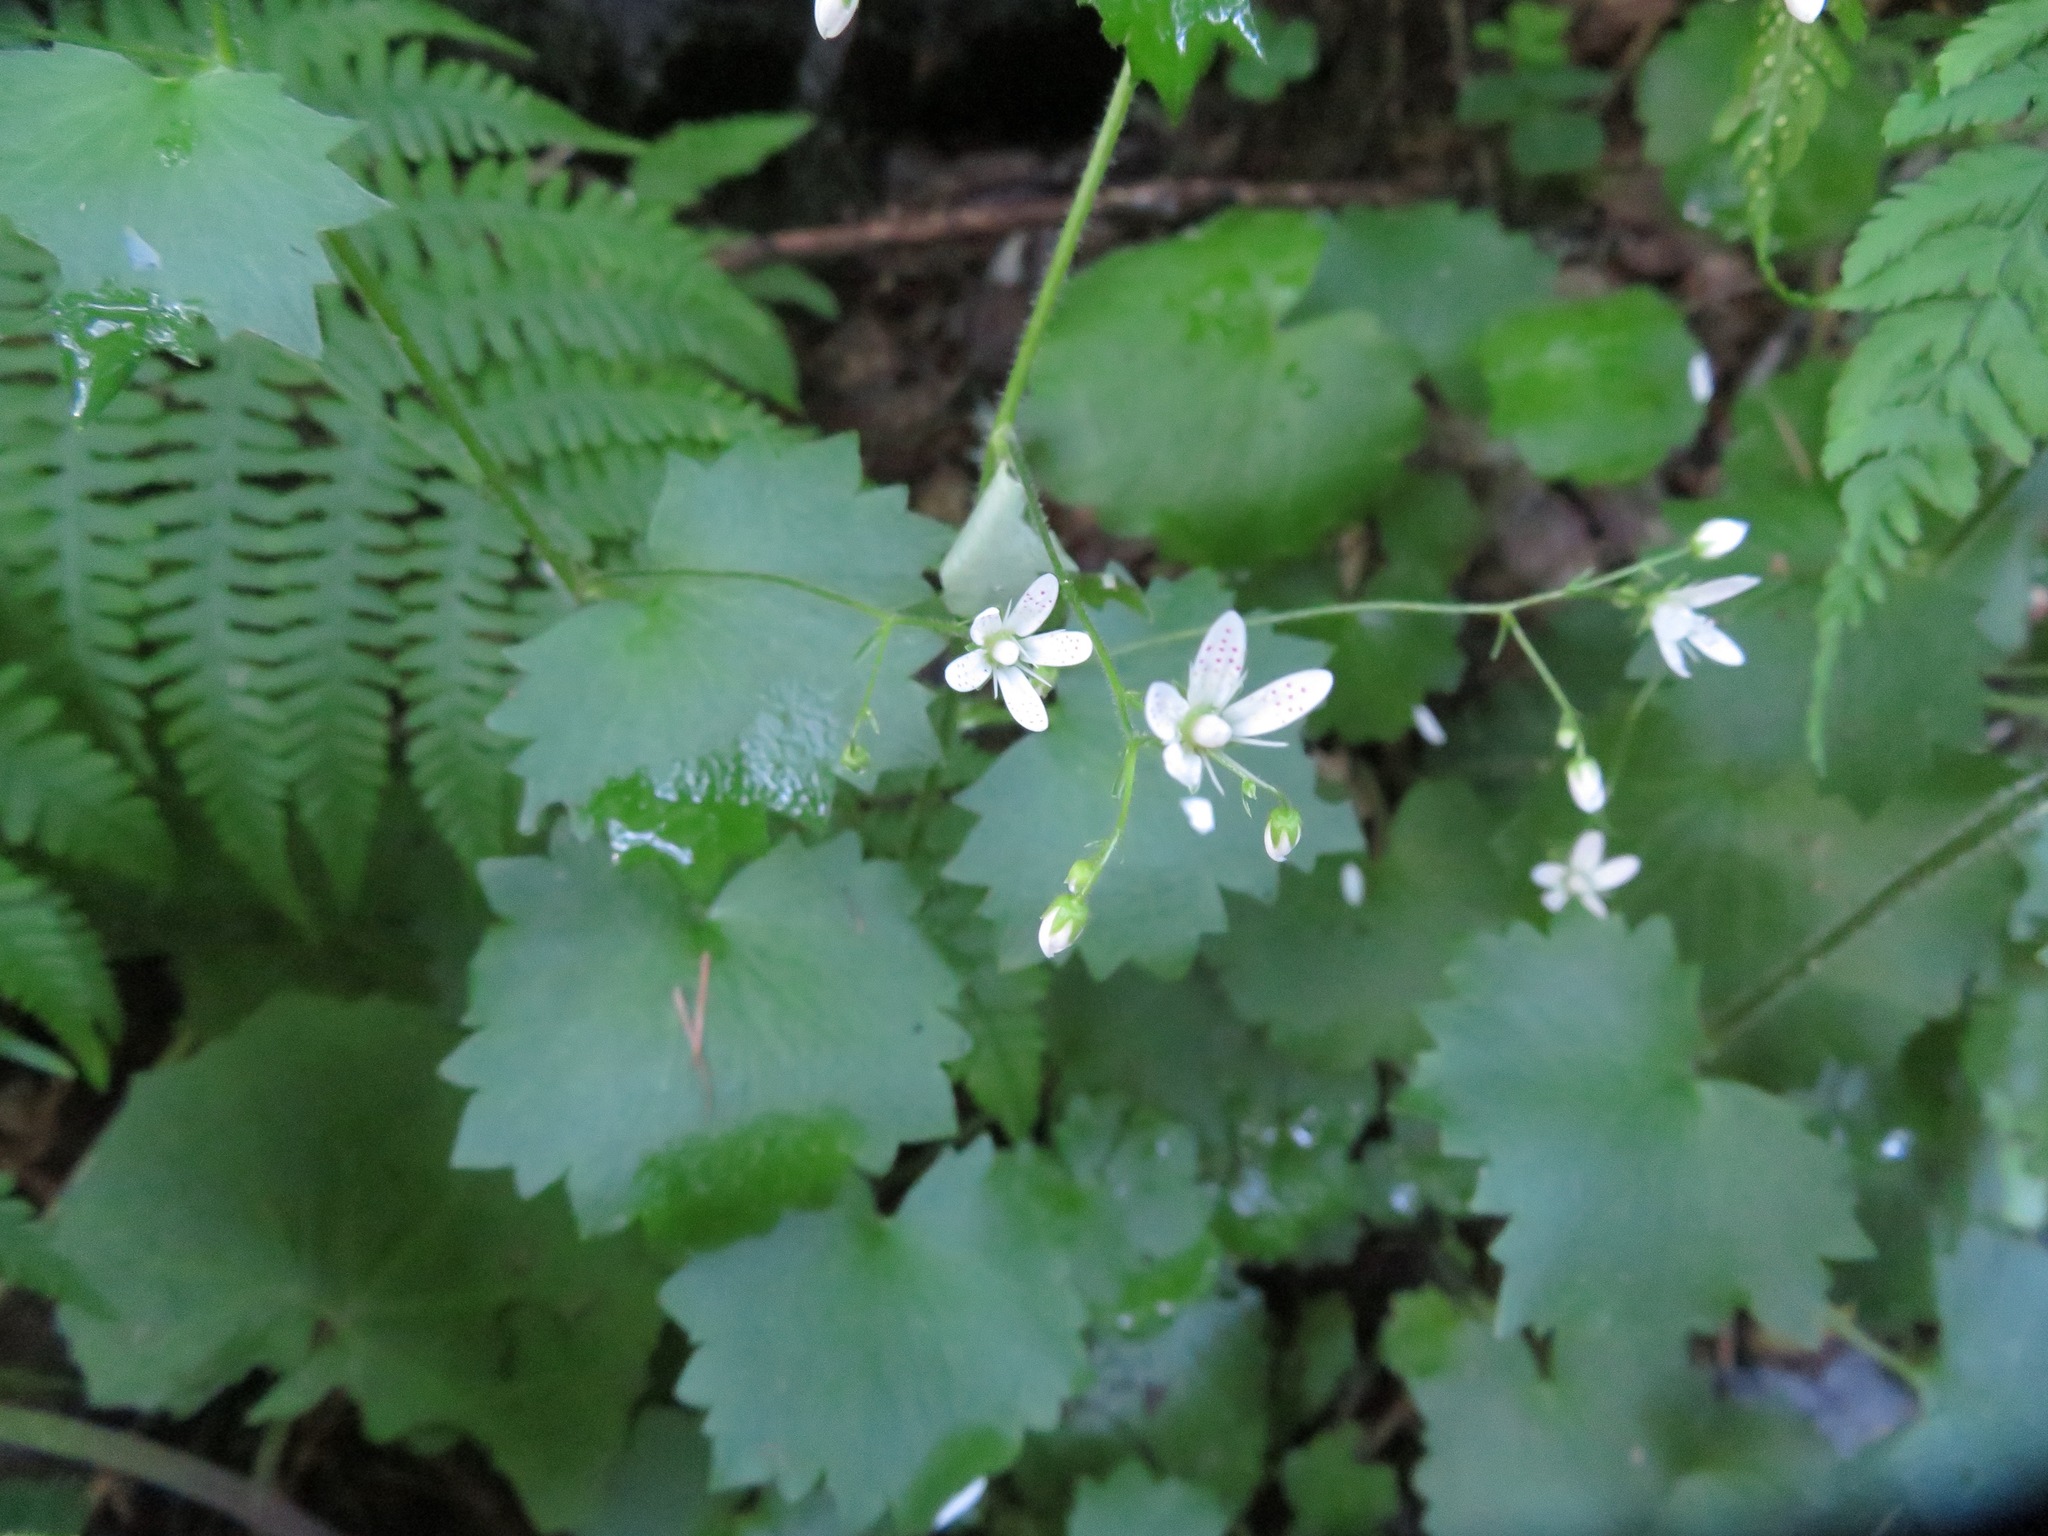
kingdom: Plantae
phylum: Tracheophyta
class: Magnoliopsida
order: Saxifragales
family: Saxifragaceae
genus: Saxifraga
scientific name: Saxifraga rotundifolia
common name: Round-leaved saxifrage
